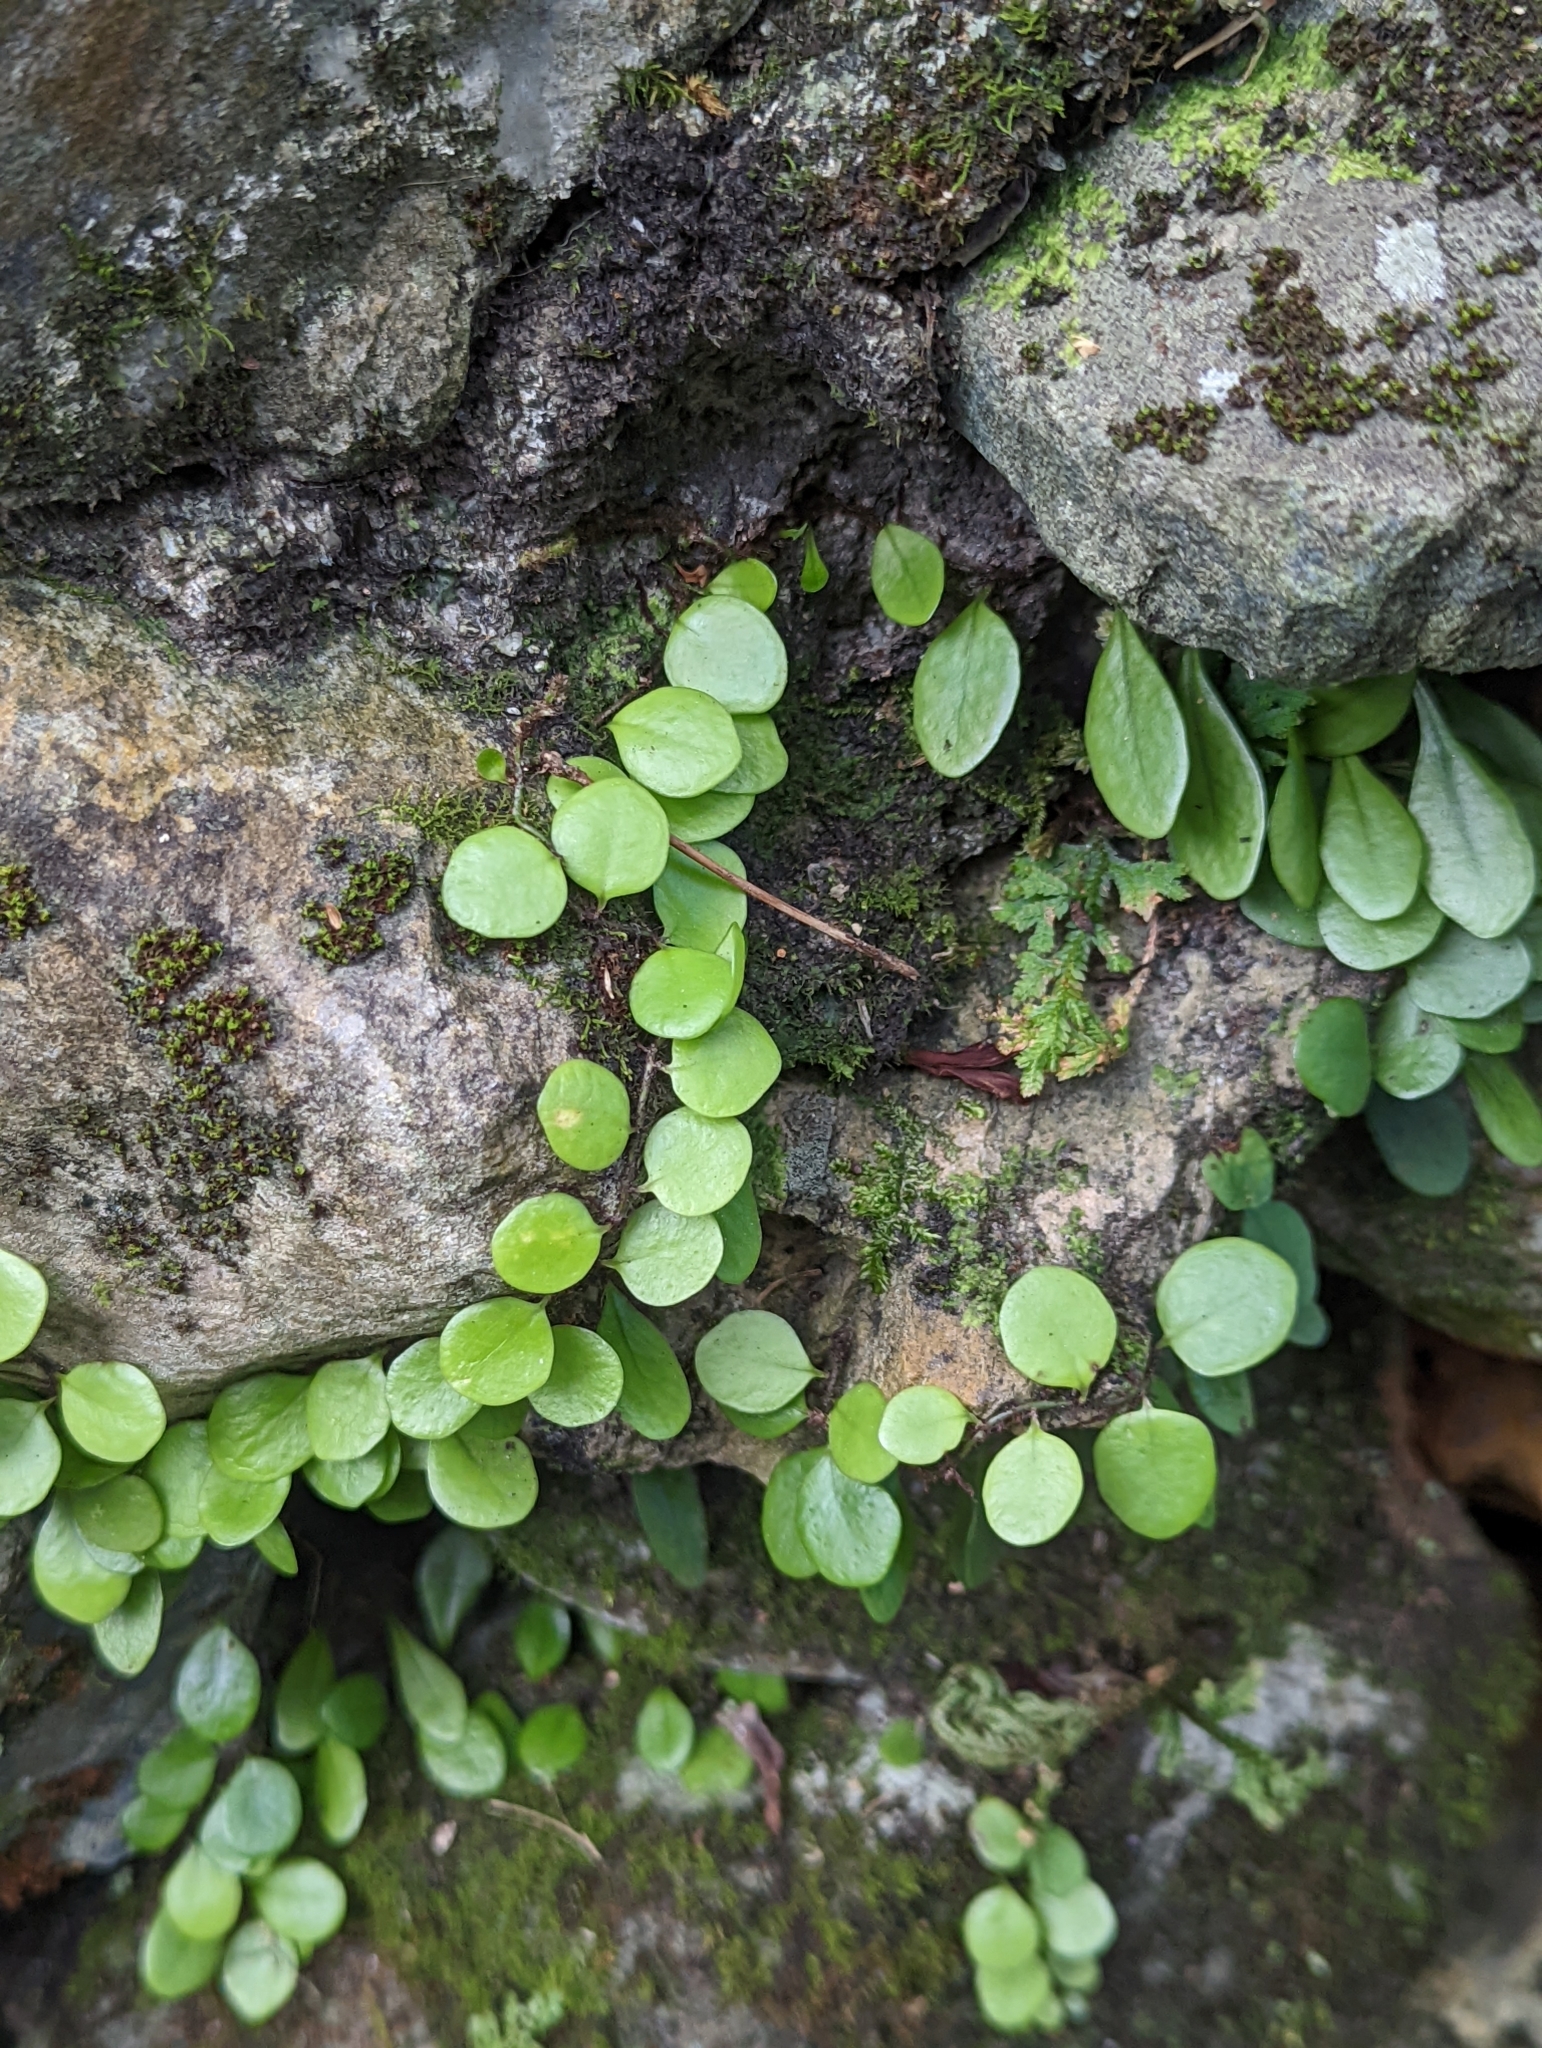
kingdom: Plantae
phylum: Tracheophyta
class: Polypodiopsida
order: Polypodiales
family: Polypodiaceae
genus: Lepisorus
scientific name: Lepisorus microphyllus
